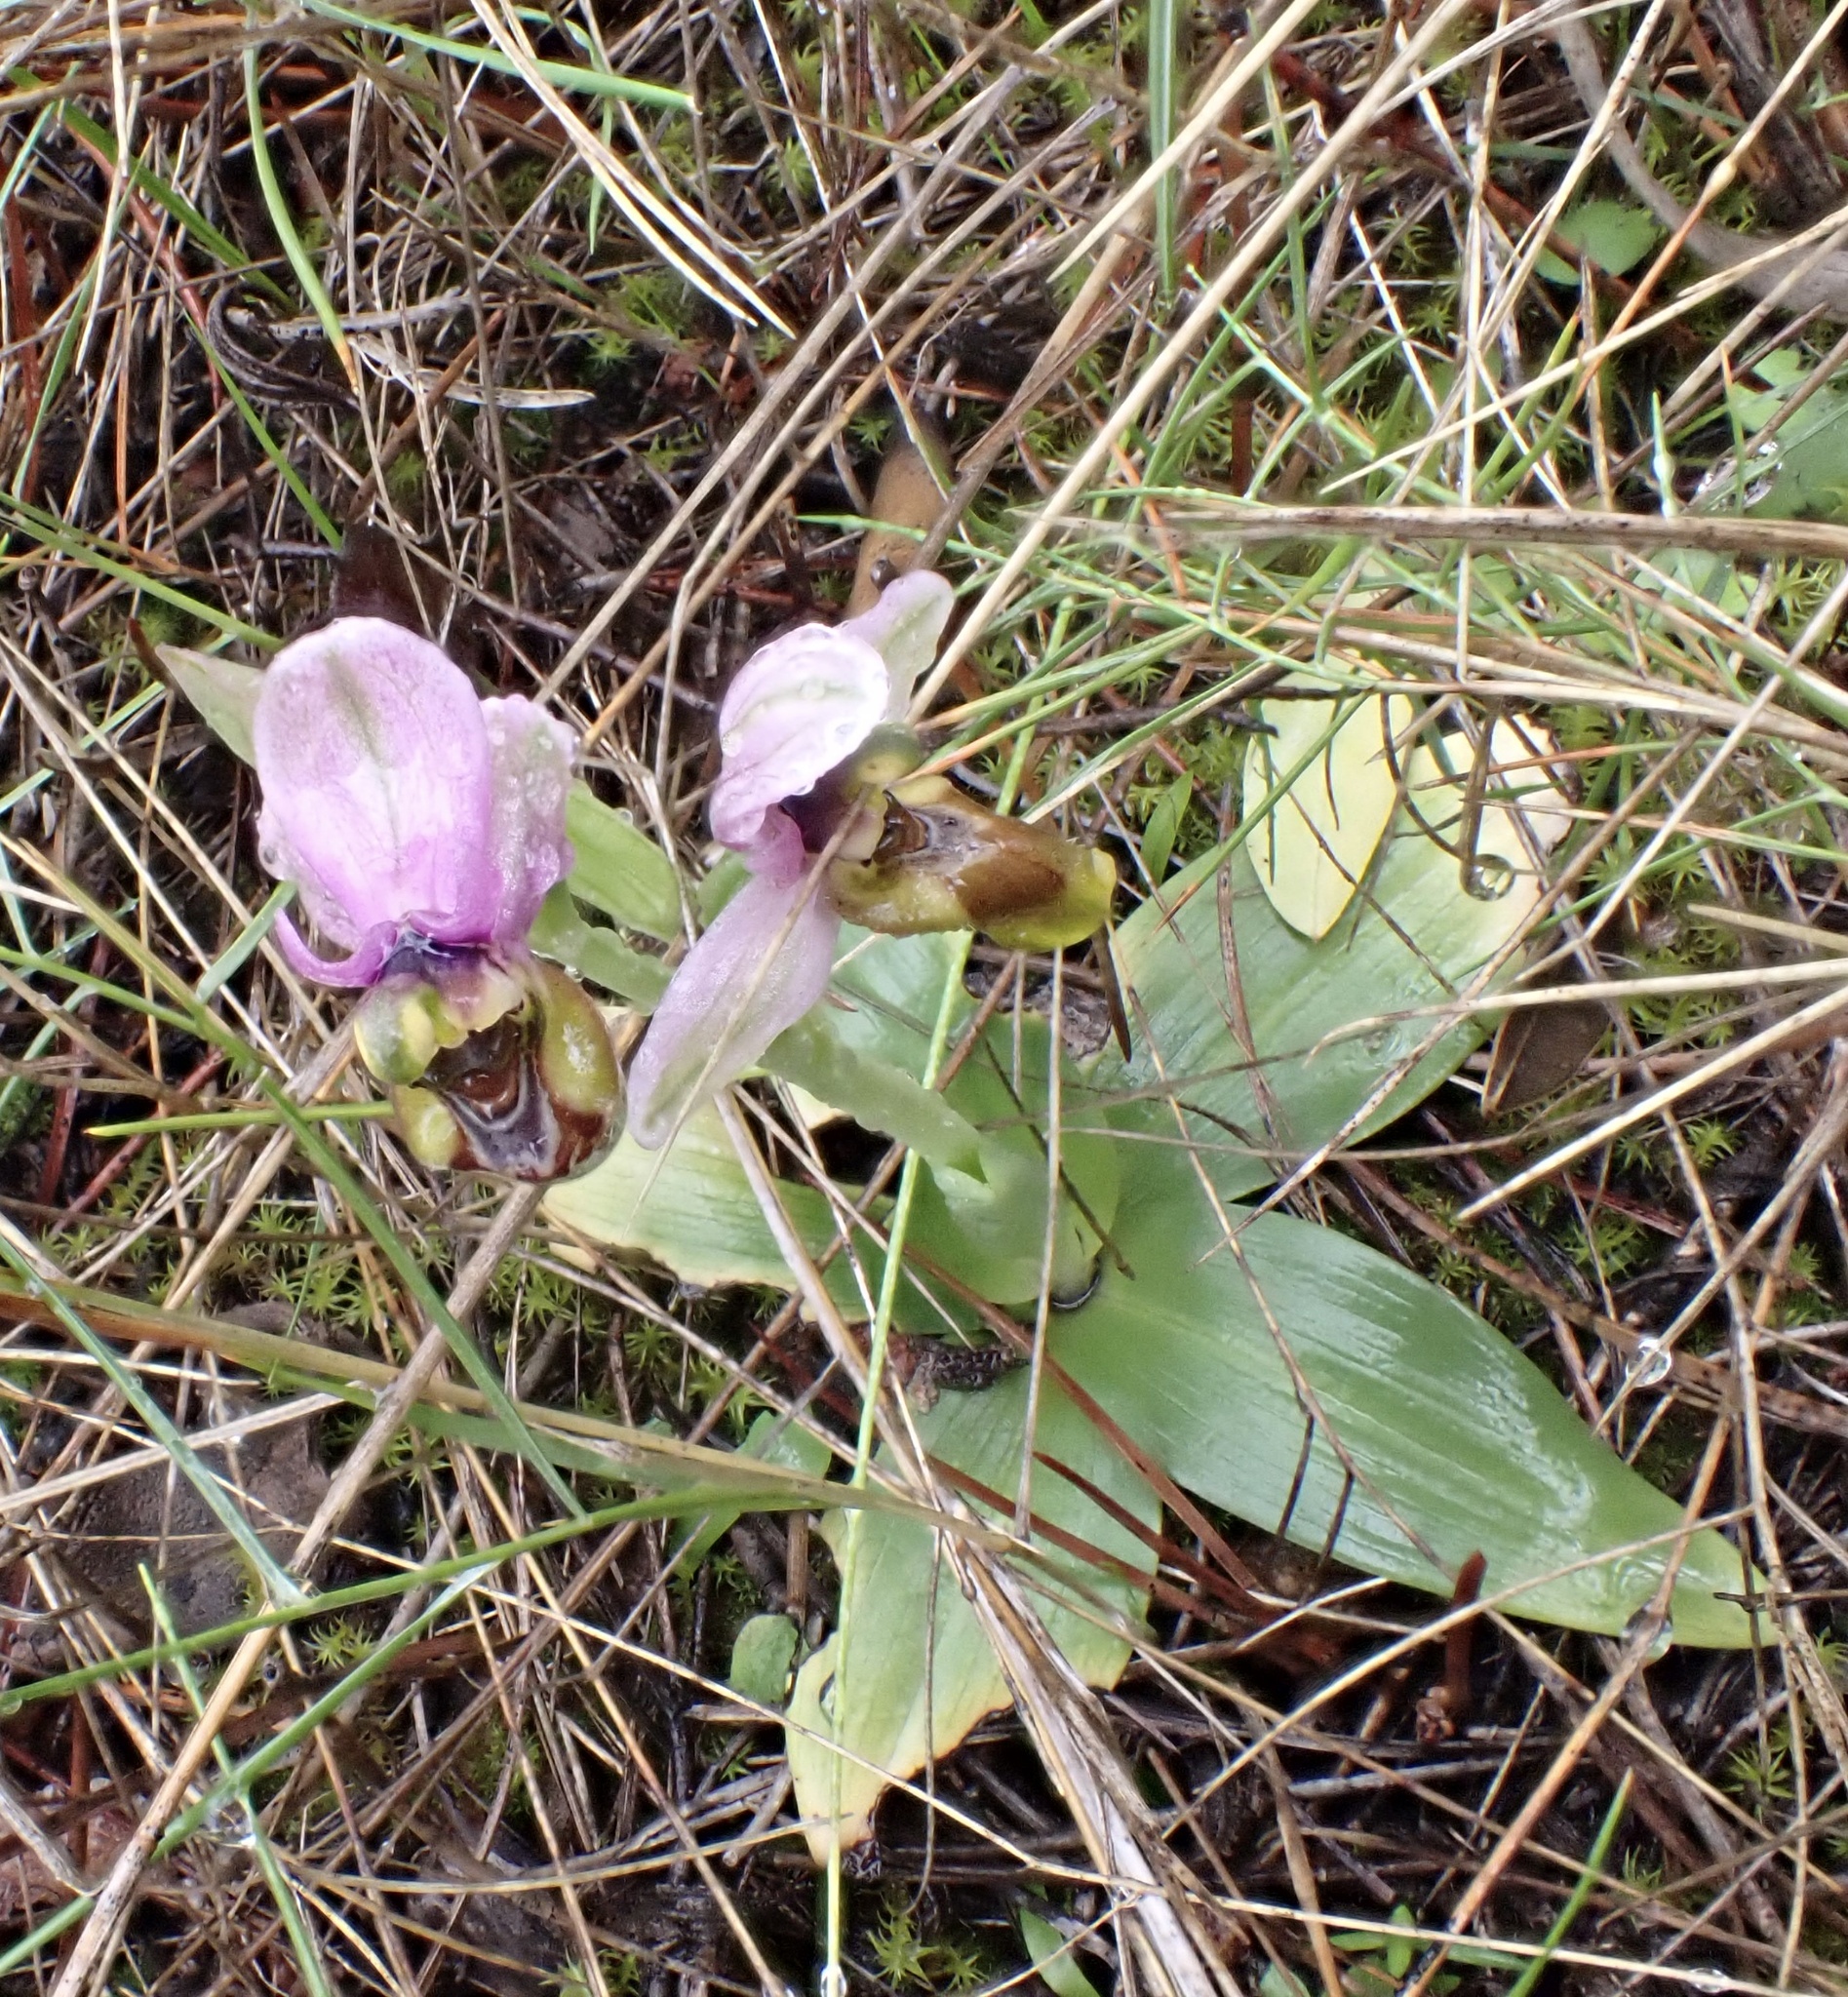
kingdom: Plantae
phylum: Tracheophyta
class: Liliopsida
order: Asparagales
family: Orchidaceae
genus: Ophrys
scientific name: Ophrys tenthredinifera
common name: Sawfly orchid
